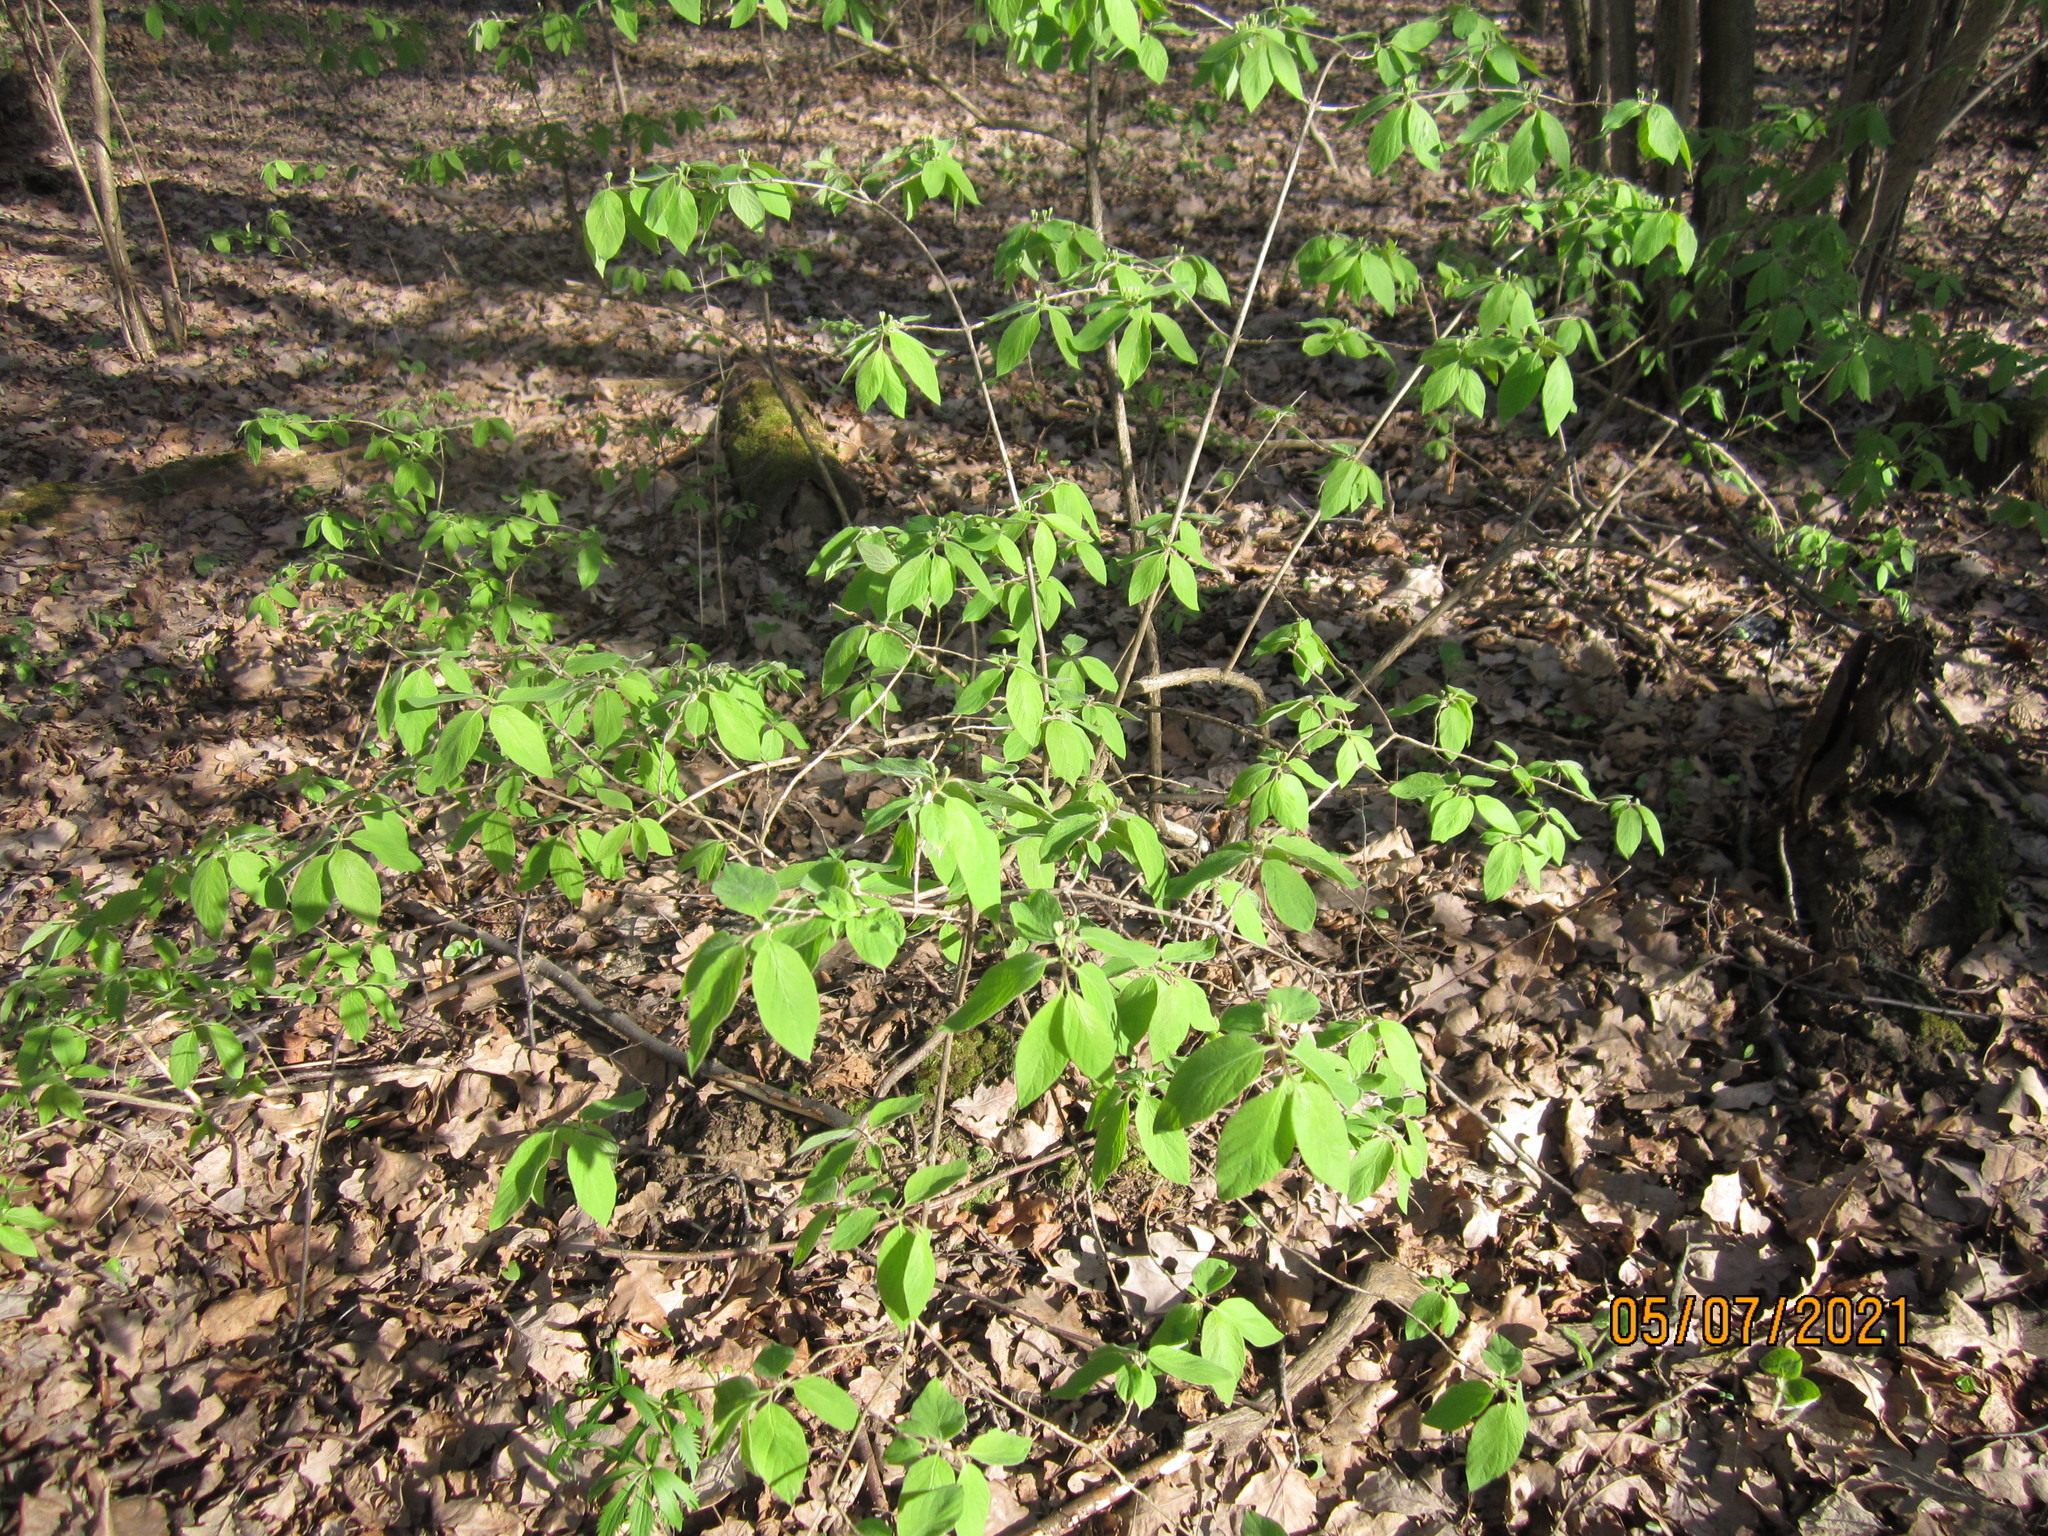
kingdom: Plantae
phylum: Tracheophyta
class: Magnoliopsida
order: Dipsacales
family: Caprifoliaceae
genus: Lonicera
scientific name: Lonicera xylosteum
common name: Fly honeysuckle
